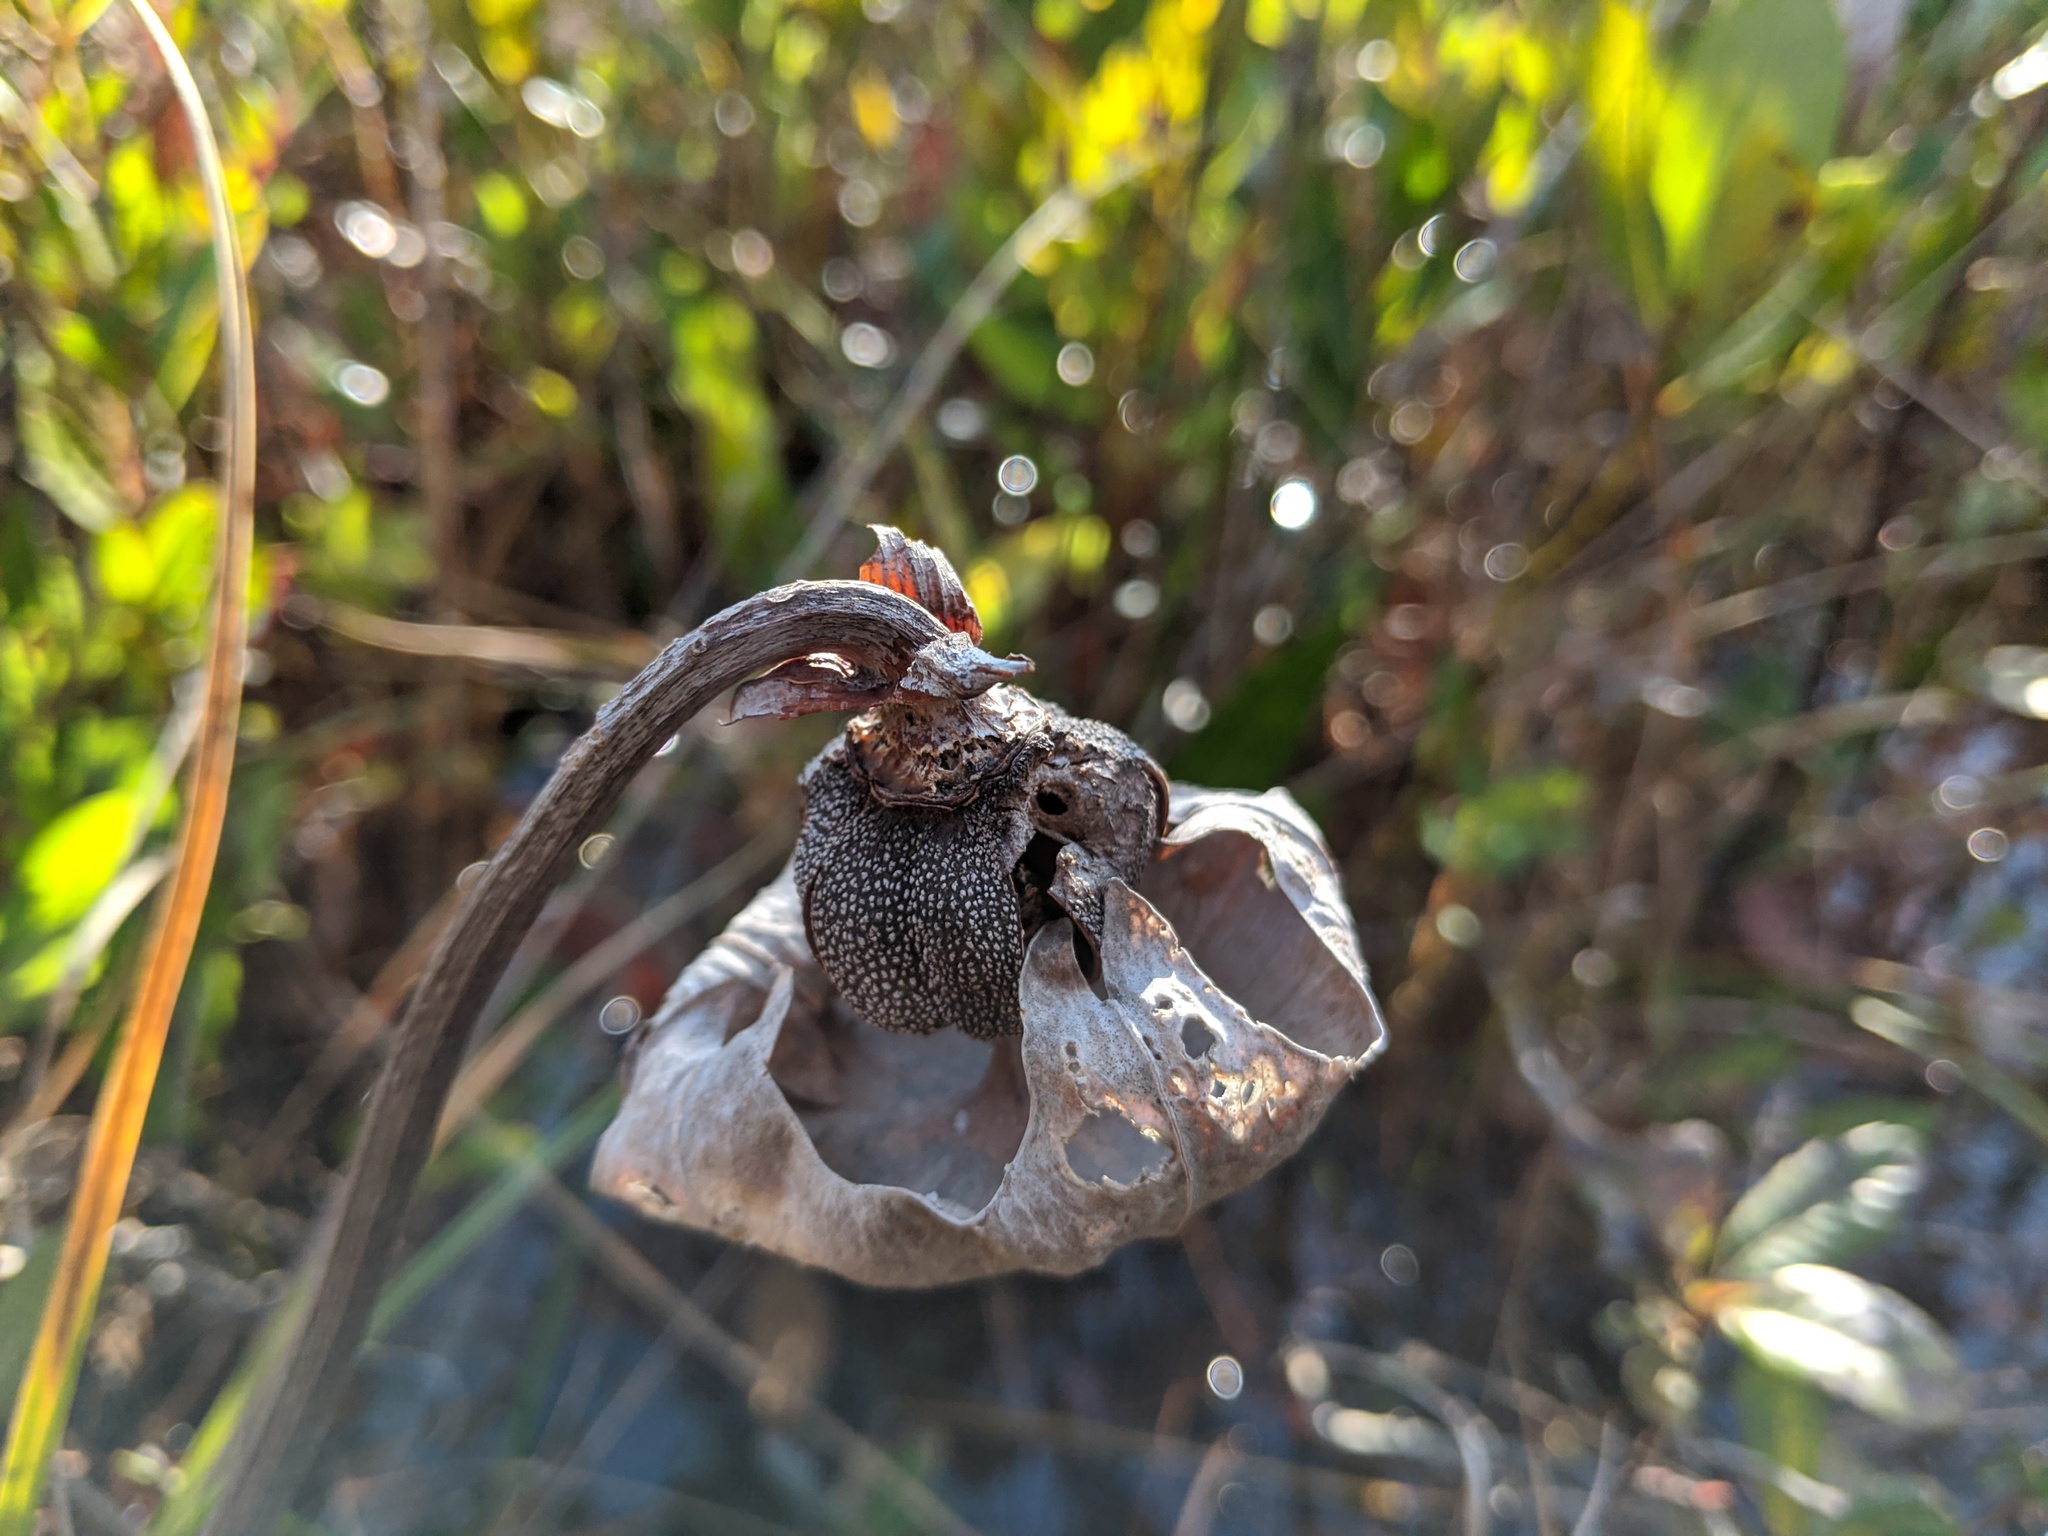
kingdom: Plantae
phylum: Tracheophyta
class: Magnoliopsida
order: Ericales
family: Sarraceniaceae
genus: Sarracenia
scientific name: Sarracenia flava
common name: Trumpets
